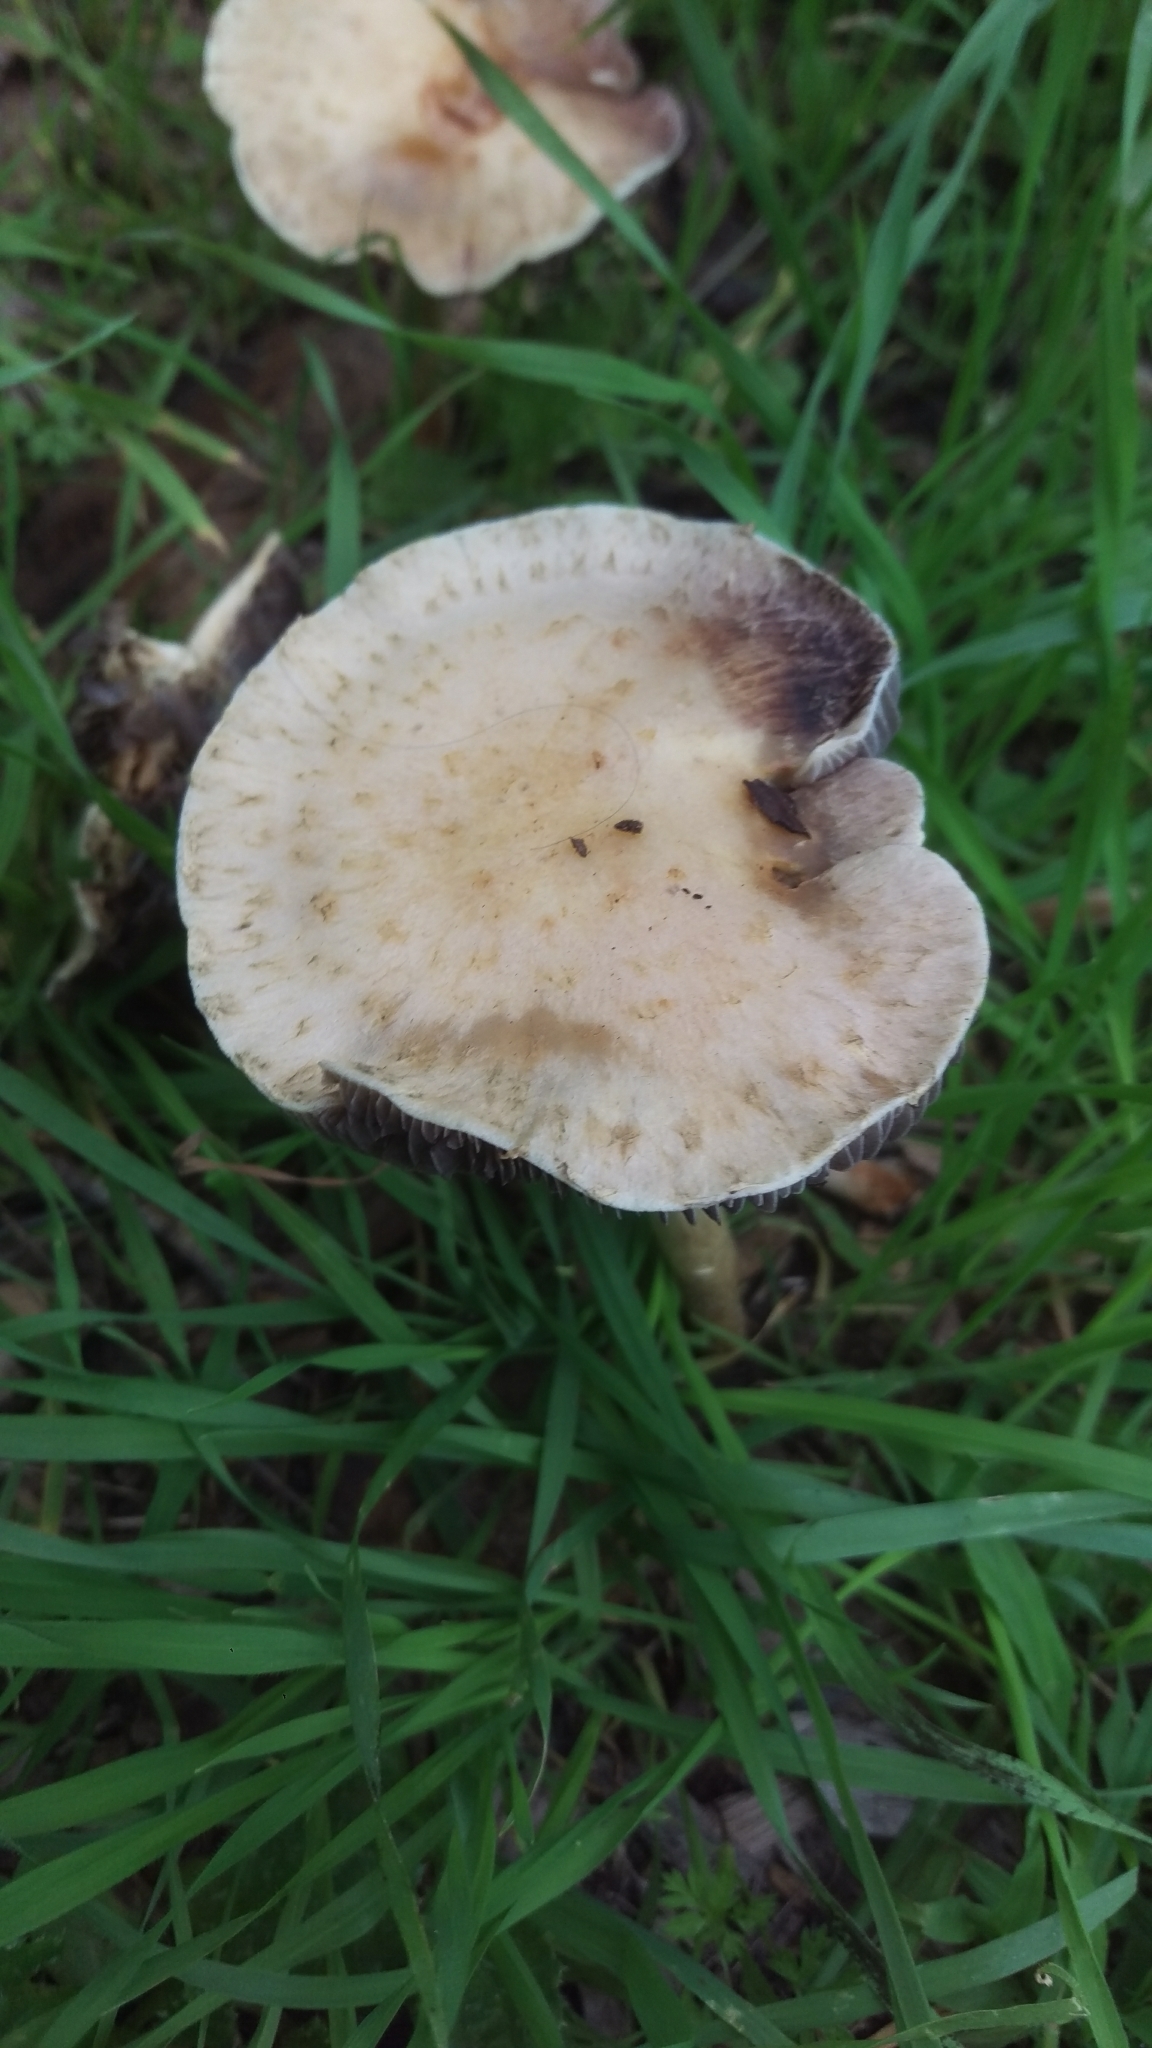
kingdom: Fungi
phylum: Basidiomycota
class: Agaricomycetes
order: Agaricales
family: Strophariaceae
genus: Leratiomyces
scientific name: Leratiomyces percevalii
